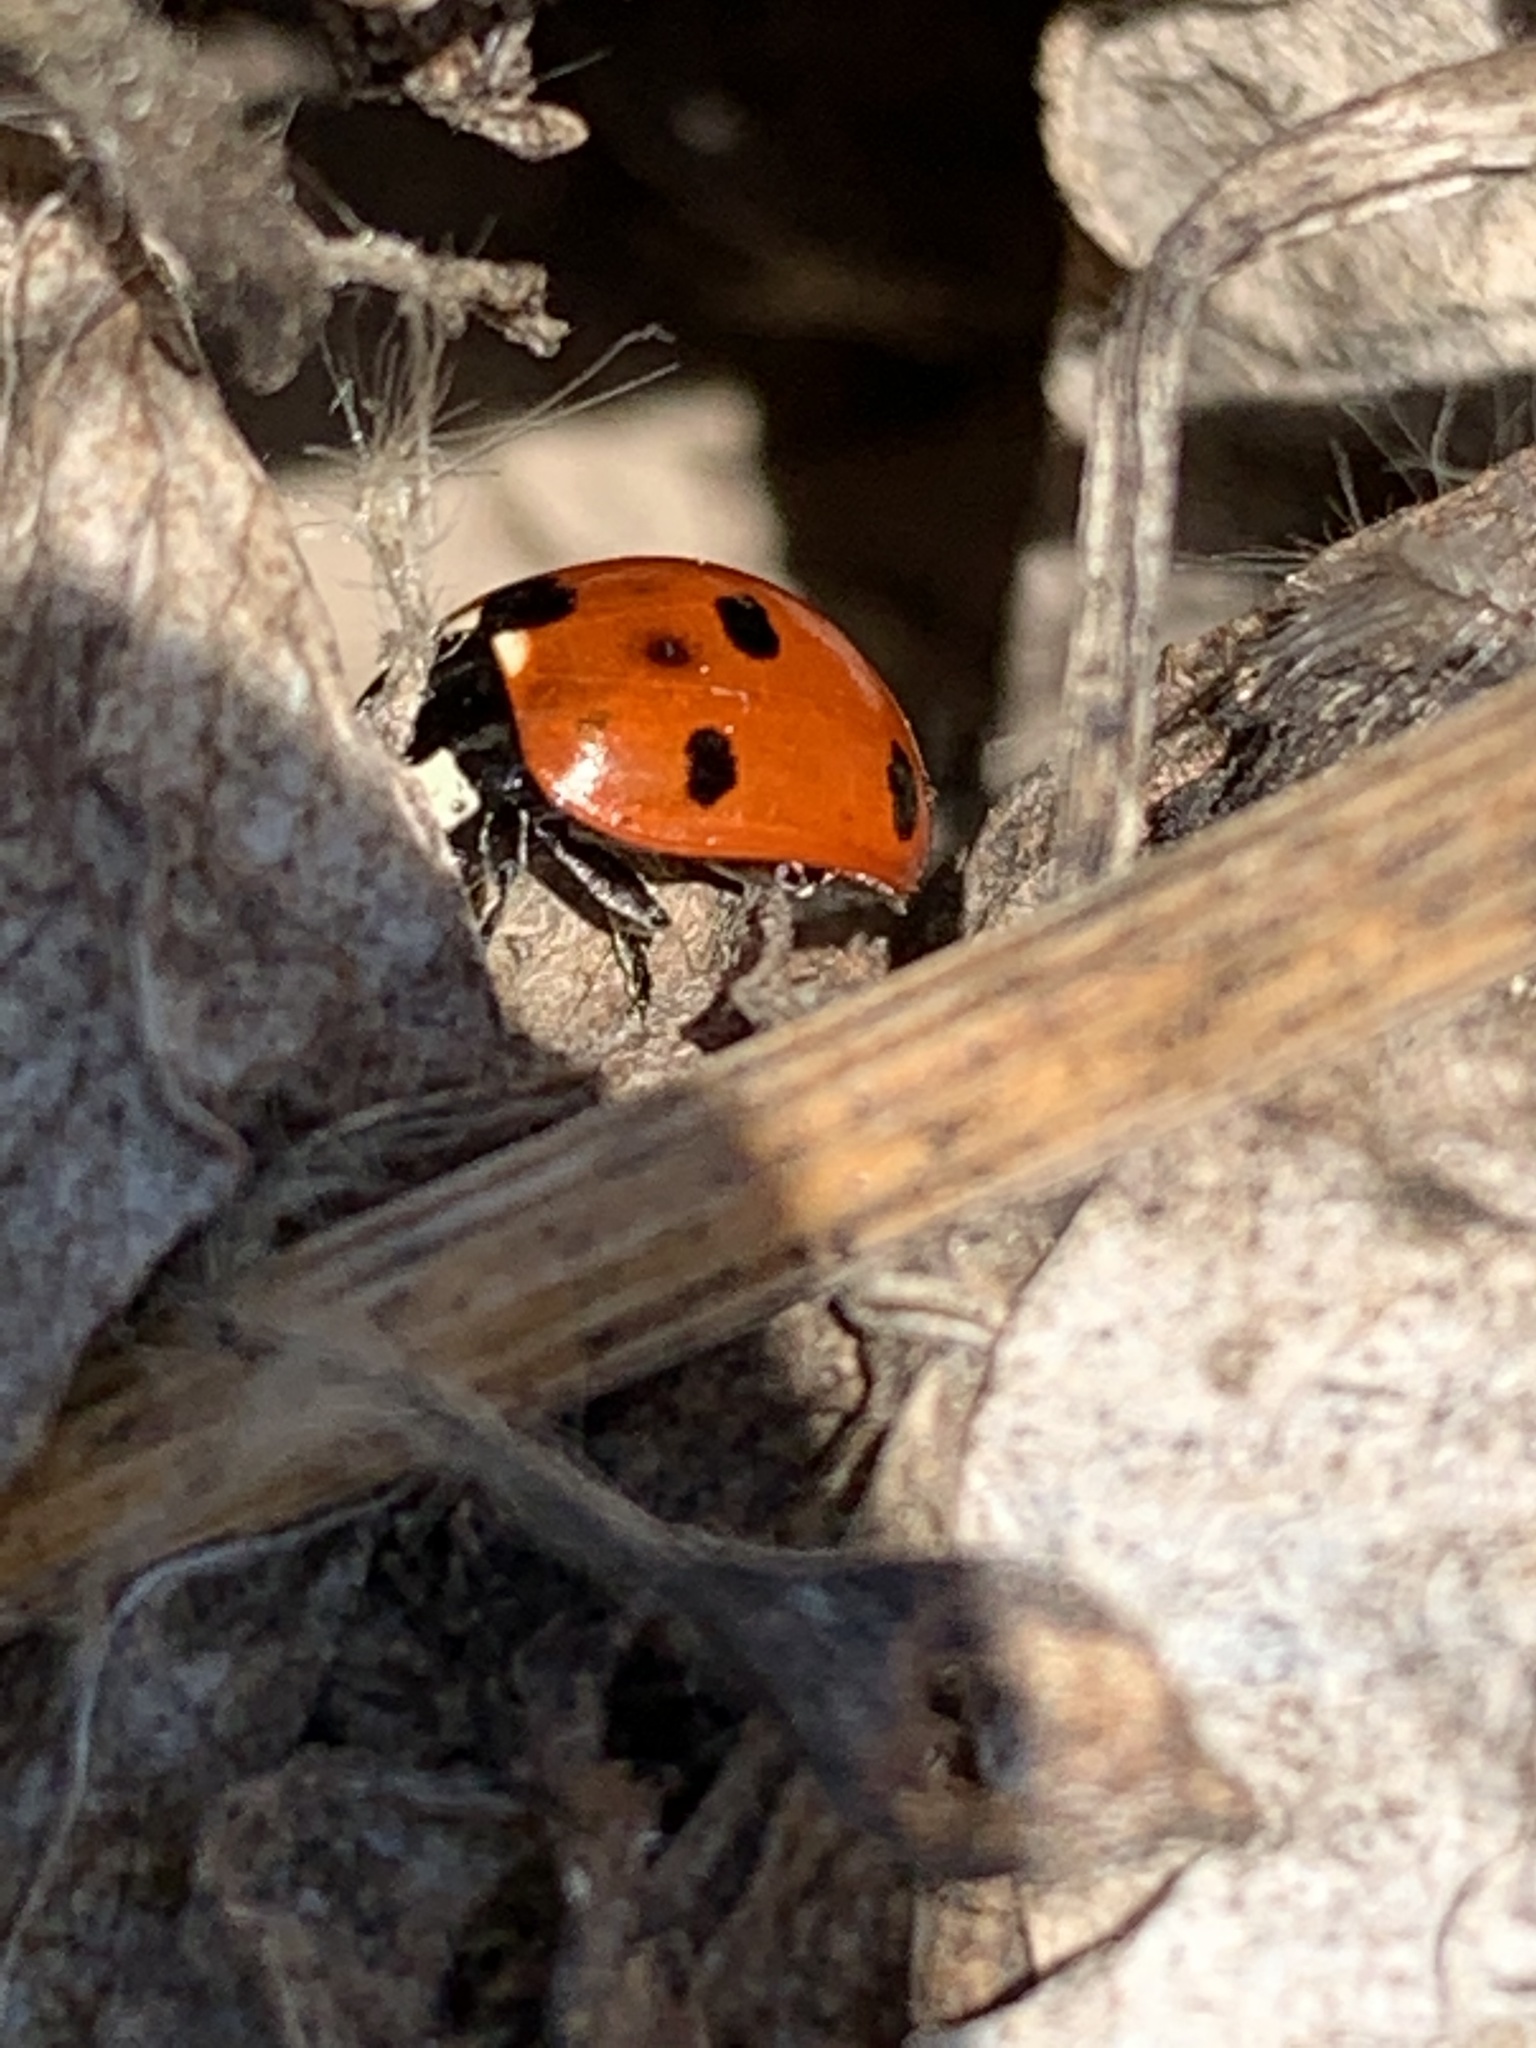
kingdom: Animalia
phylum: Arthropoda
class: Insecta
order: Coleoptera
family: Coccinellidae
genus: Coccinella
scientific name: Coccinella septempunctata
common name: Sevenspotted lady beetle
